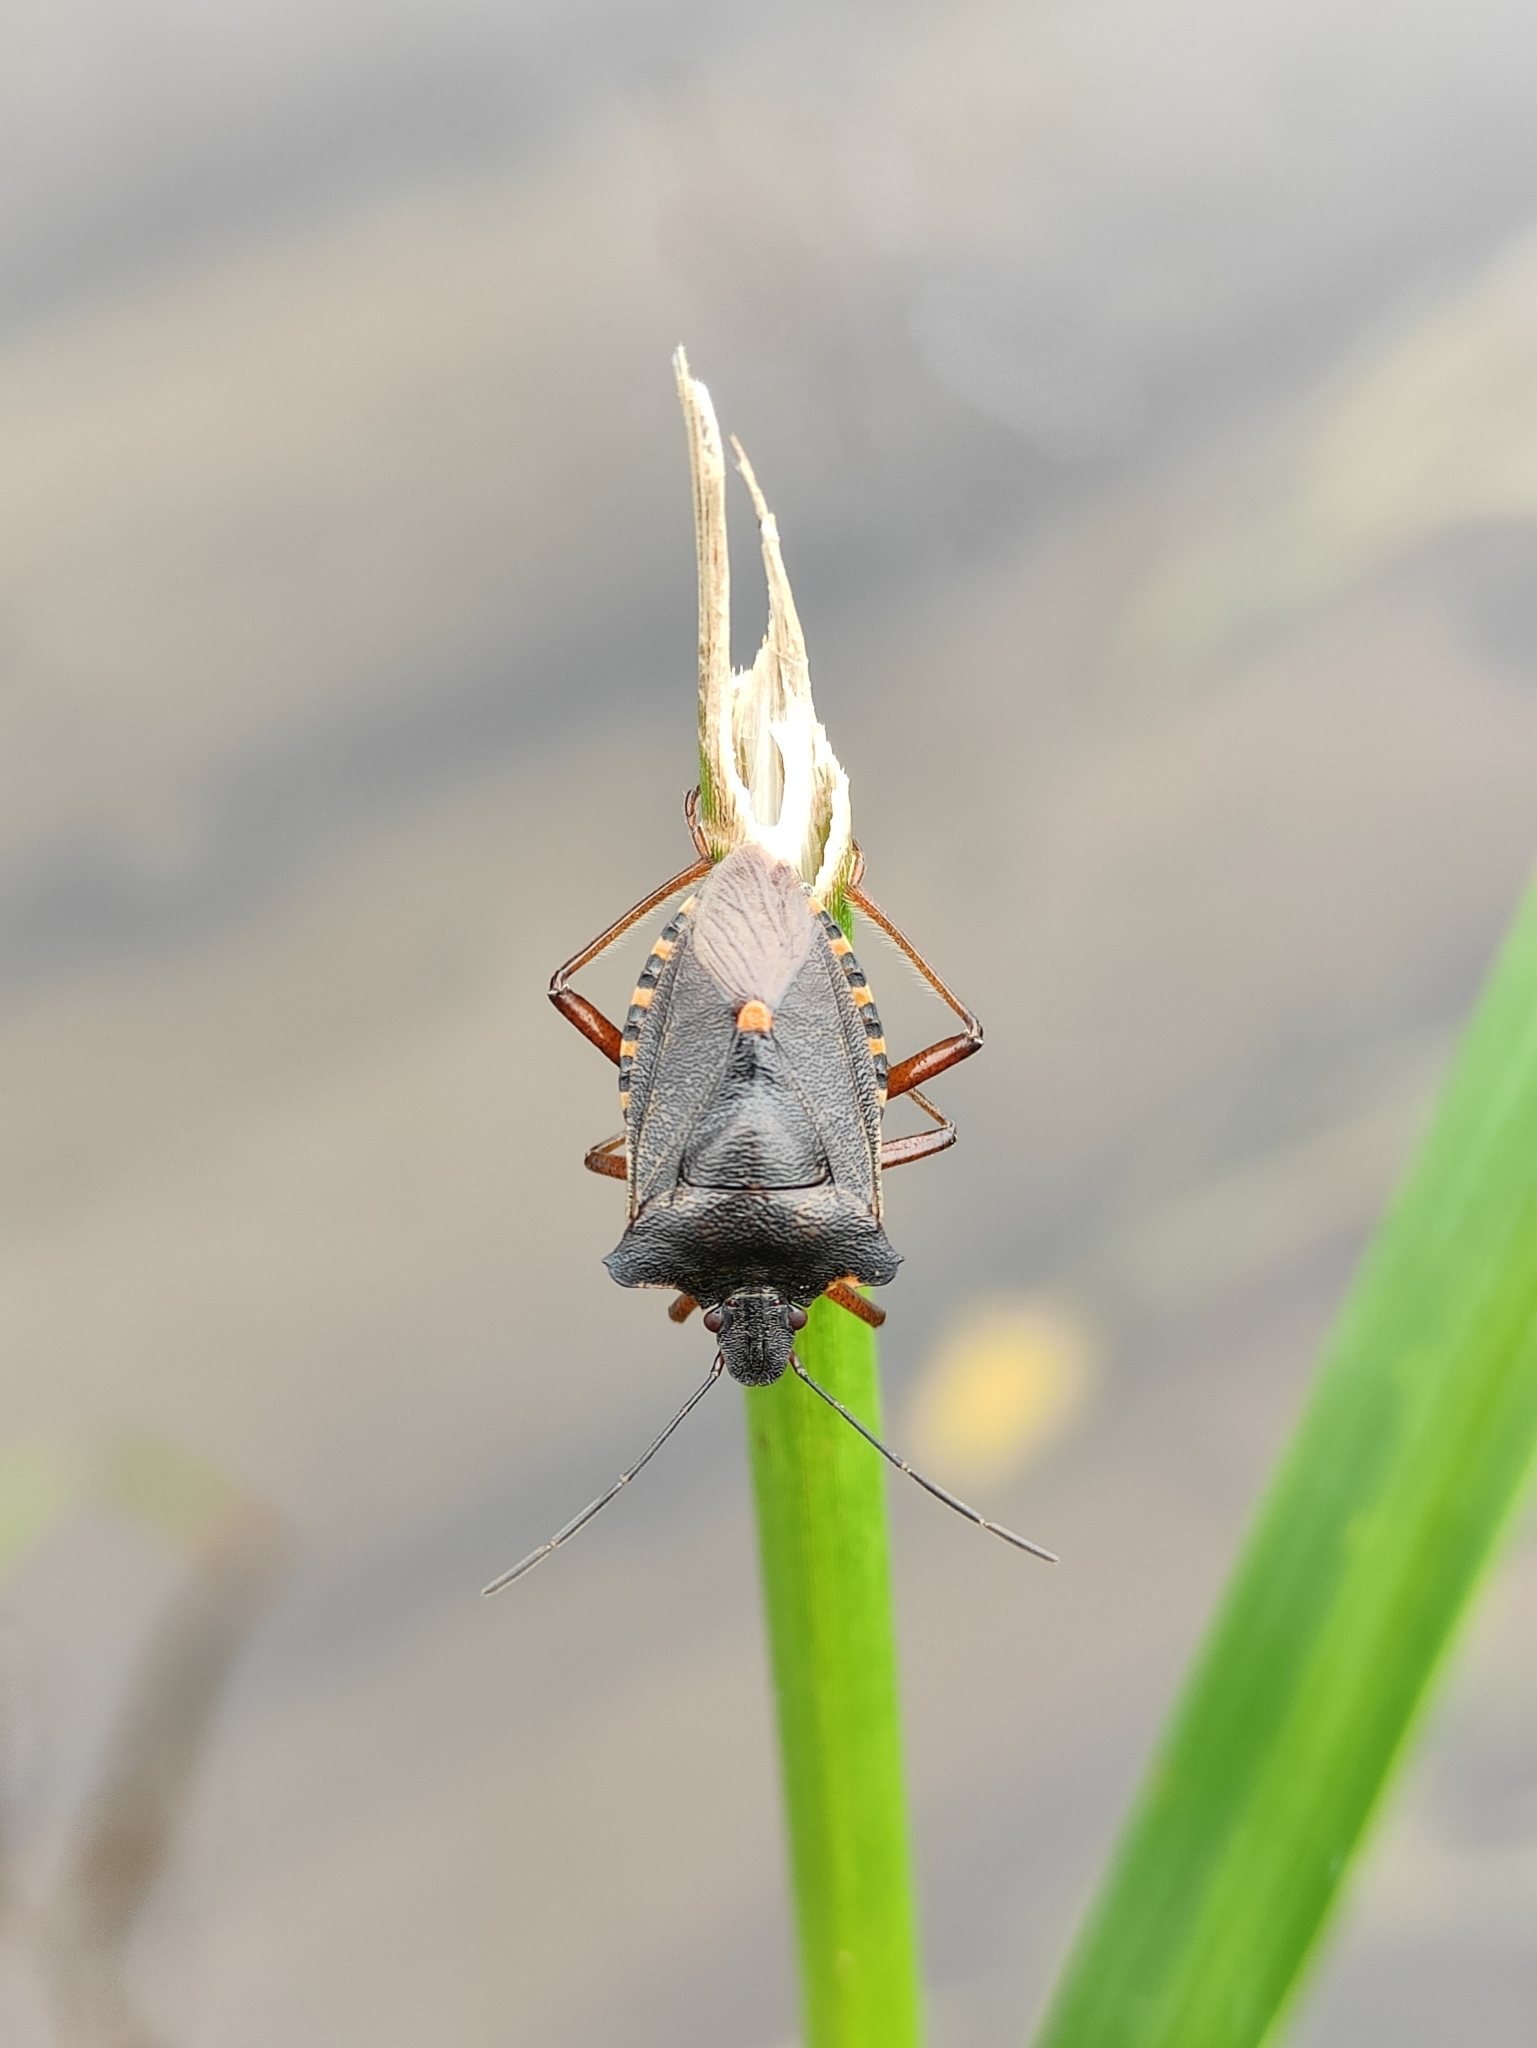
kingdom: Animalia
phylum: Arthropoda
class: Insecta
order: Hemiptera
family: Pentatomidae
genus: Pentatoma
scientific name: Pentatoma rufipes
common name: Forest bug
